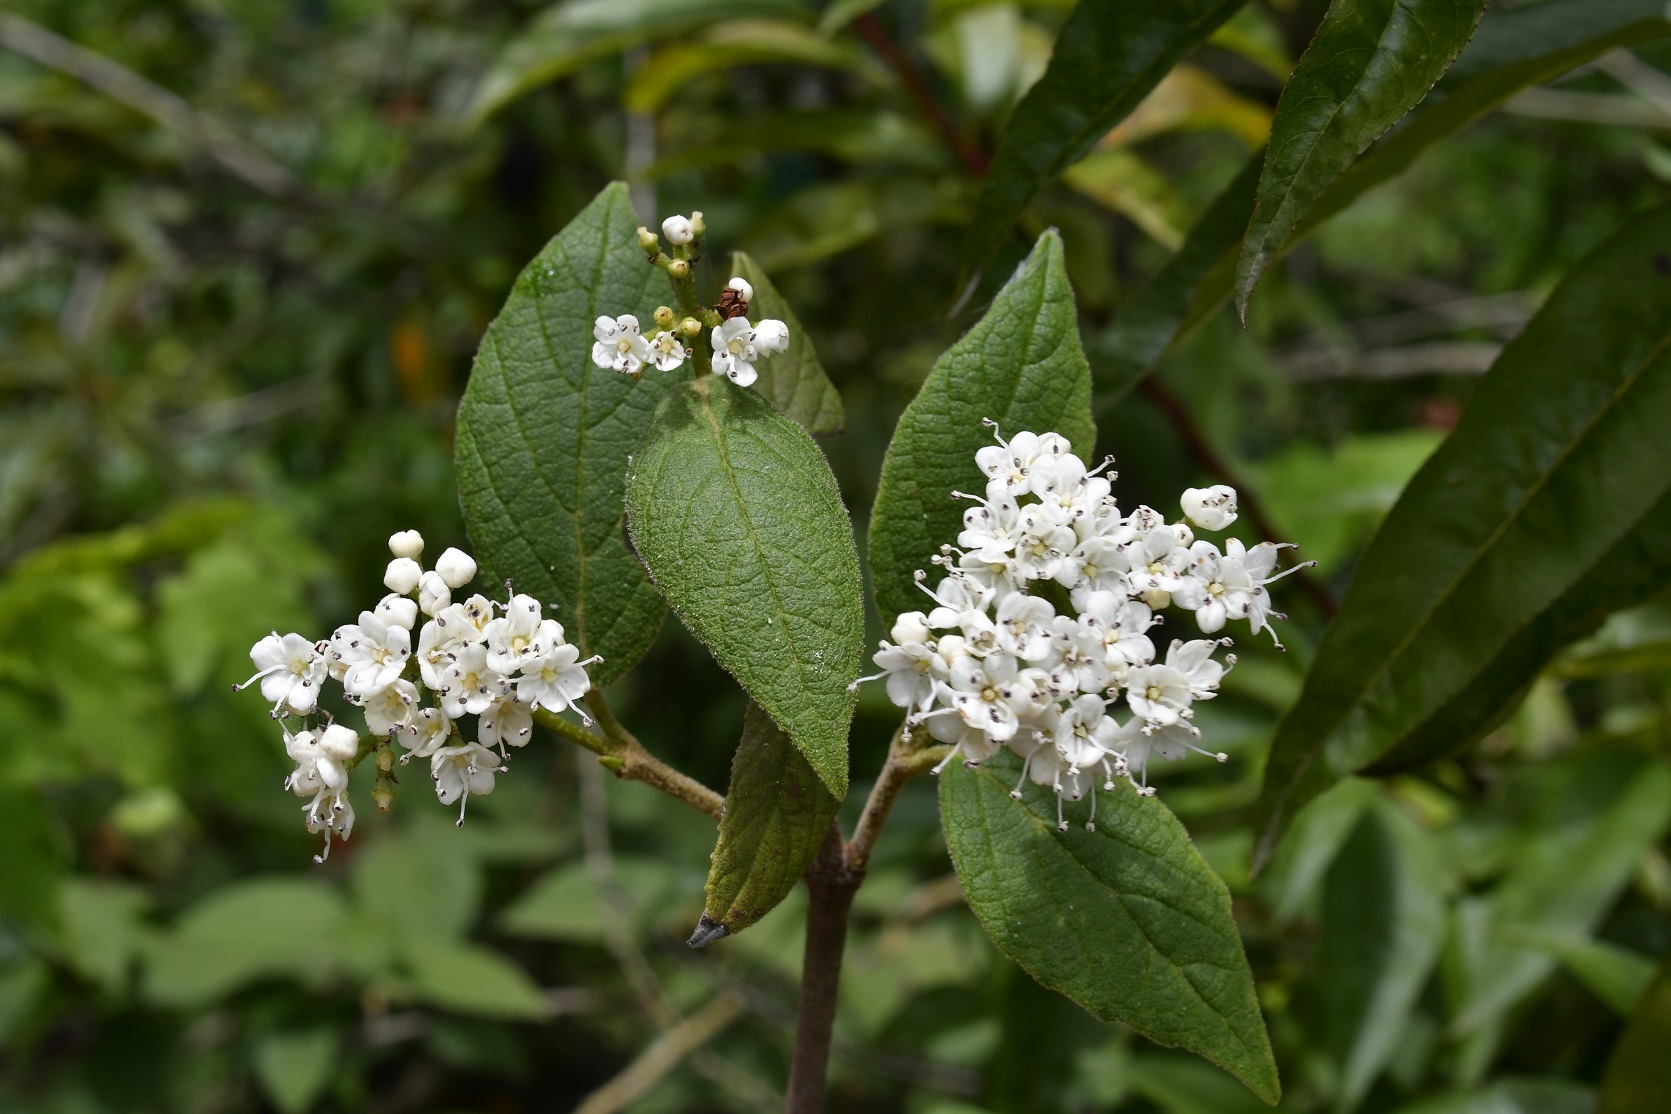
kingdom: Plantae
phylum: Tracheophyta
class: Magnoliopsida
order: Dipsacales
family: Viburnaceae
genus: Viburnum
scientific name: Viburnum jucundum
